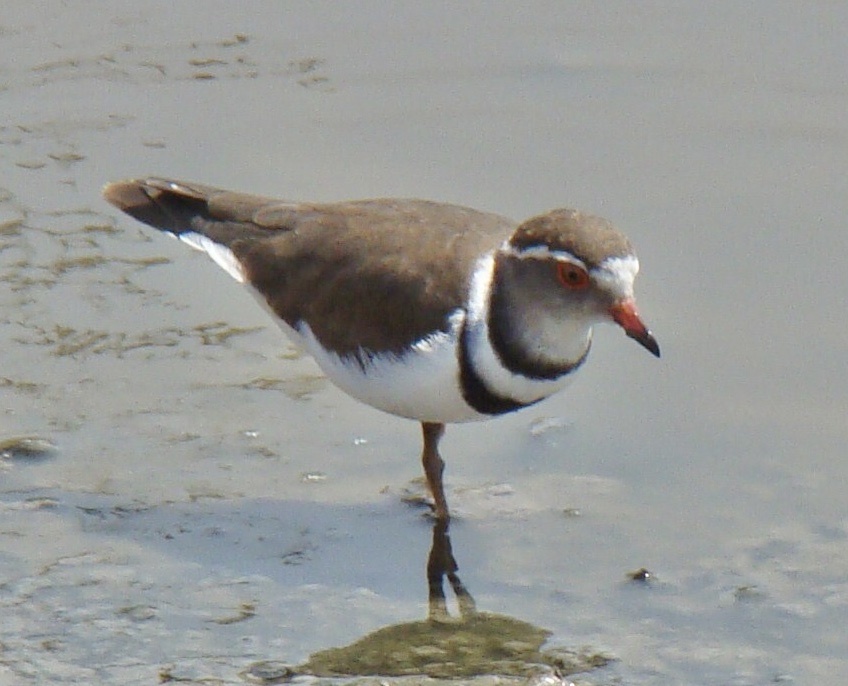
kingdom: Animalia
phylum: Chordata
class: Aves
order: Charadriiformes
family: Charadriidae
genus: Charadrius
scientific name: Charadrius tricollaris
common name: Three-banded plover
